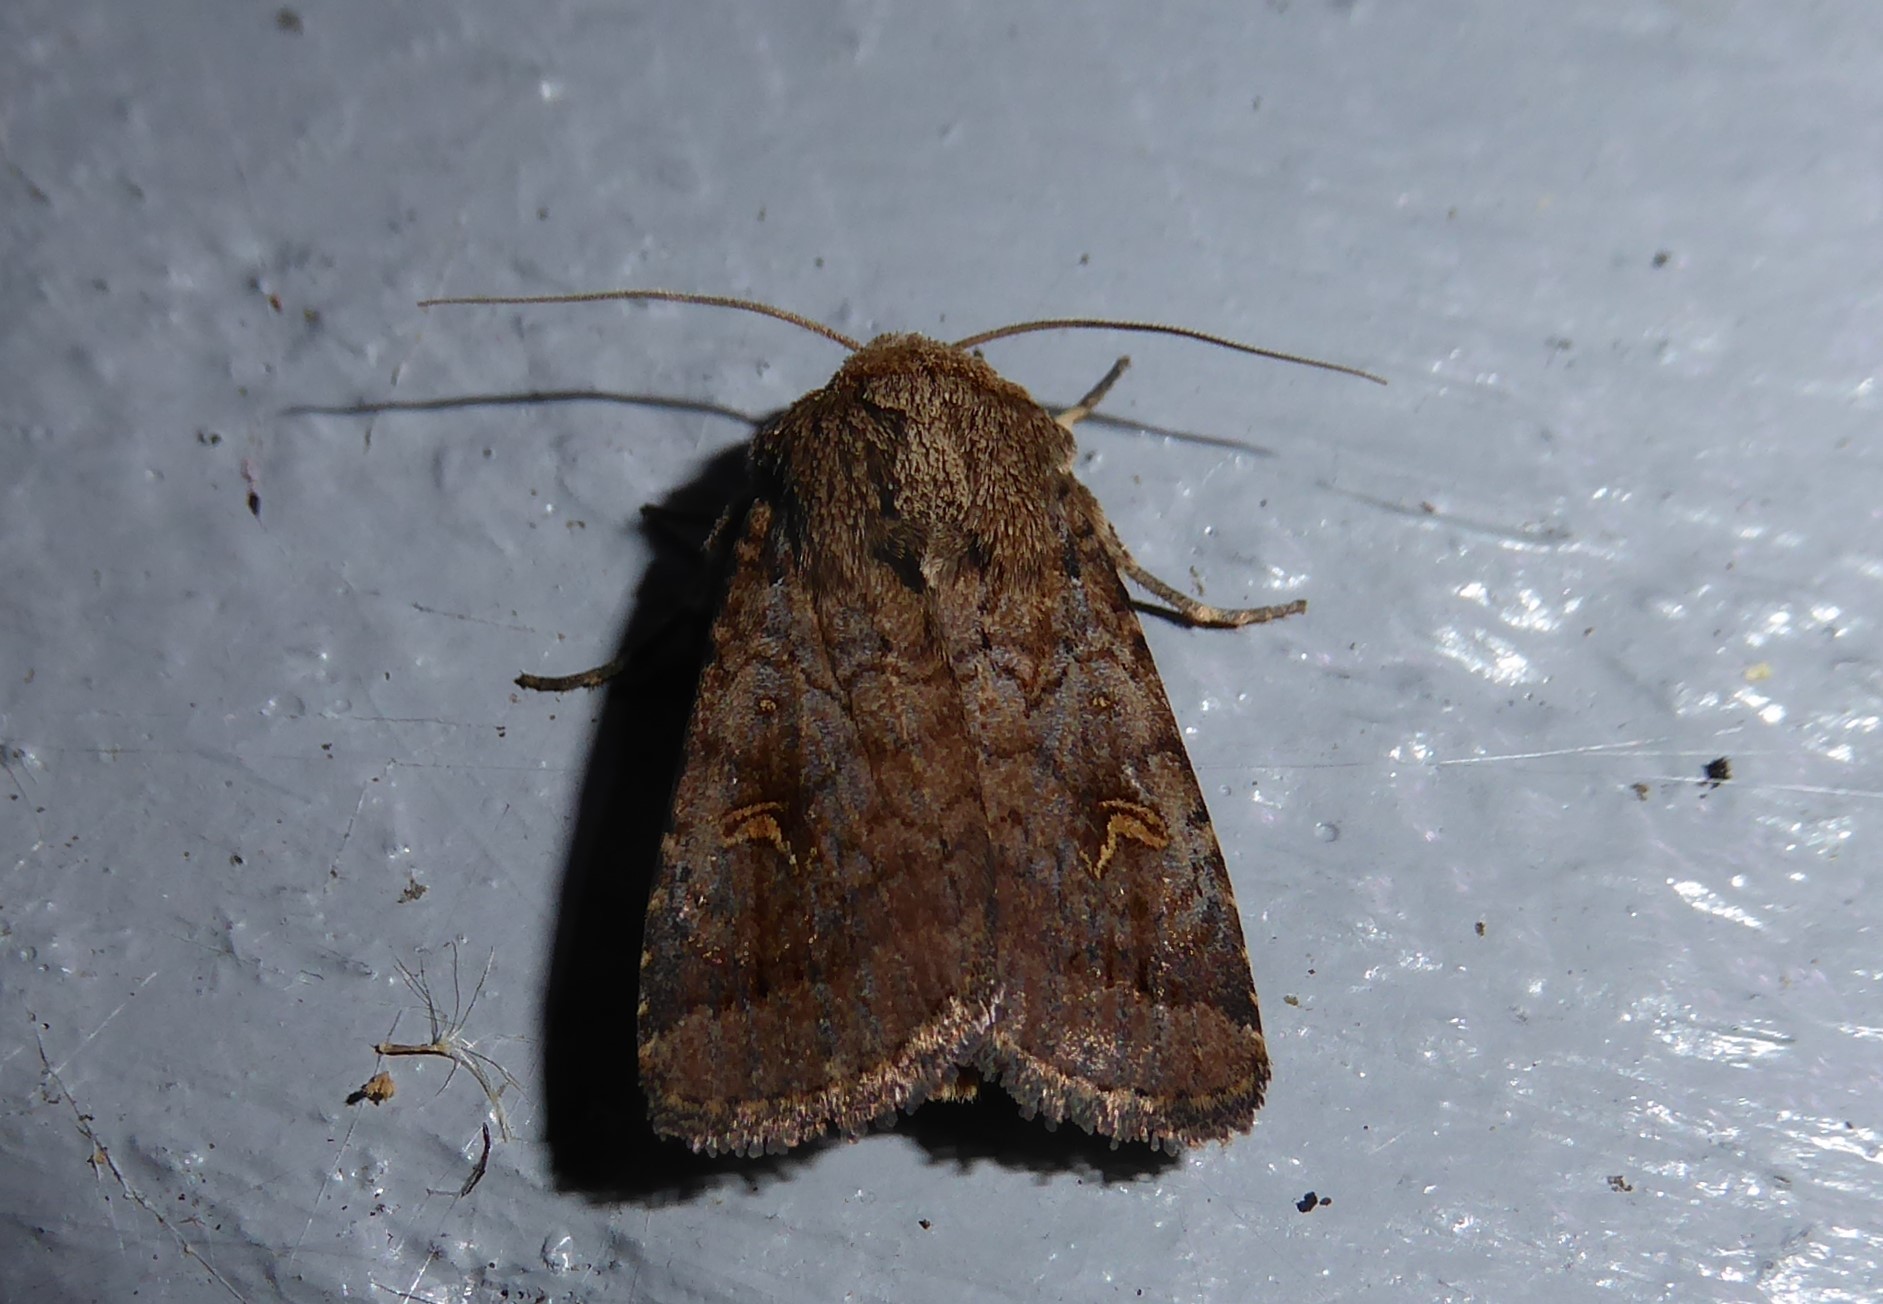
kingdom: Animalia
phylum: Arthropoda
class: Insecta
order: Lepidoptera
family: Noctuidae
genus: Proteuxoa
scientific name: Proteuxoa tetronycha
